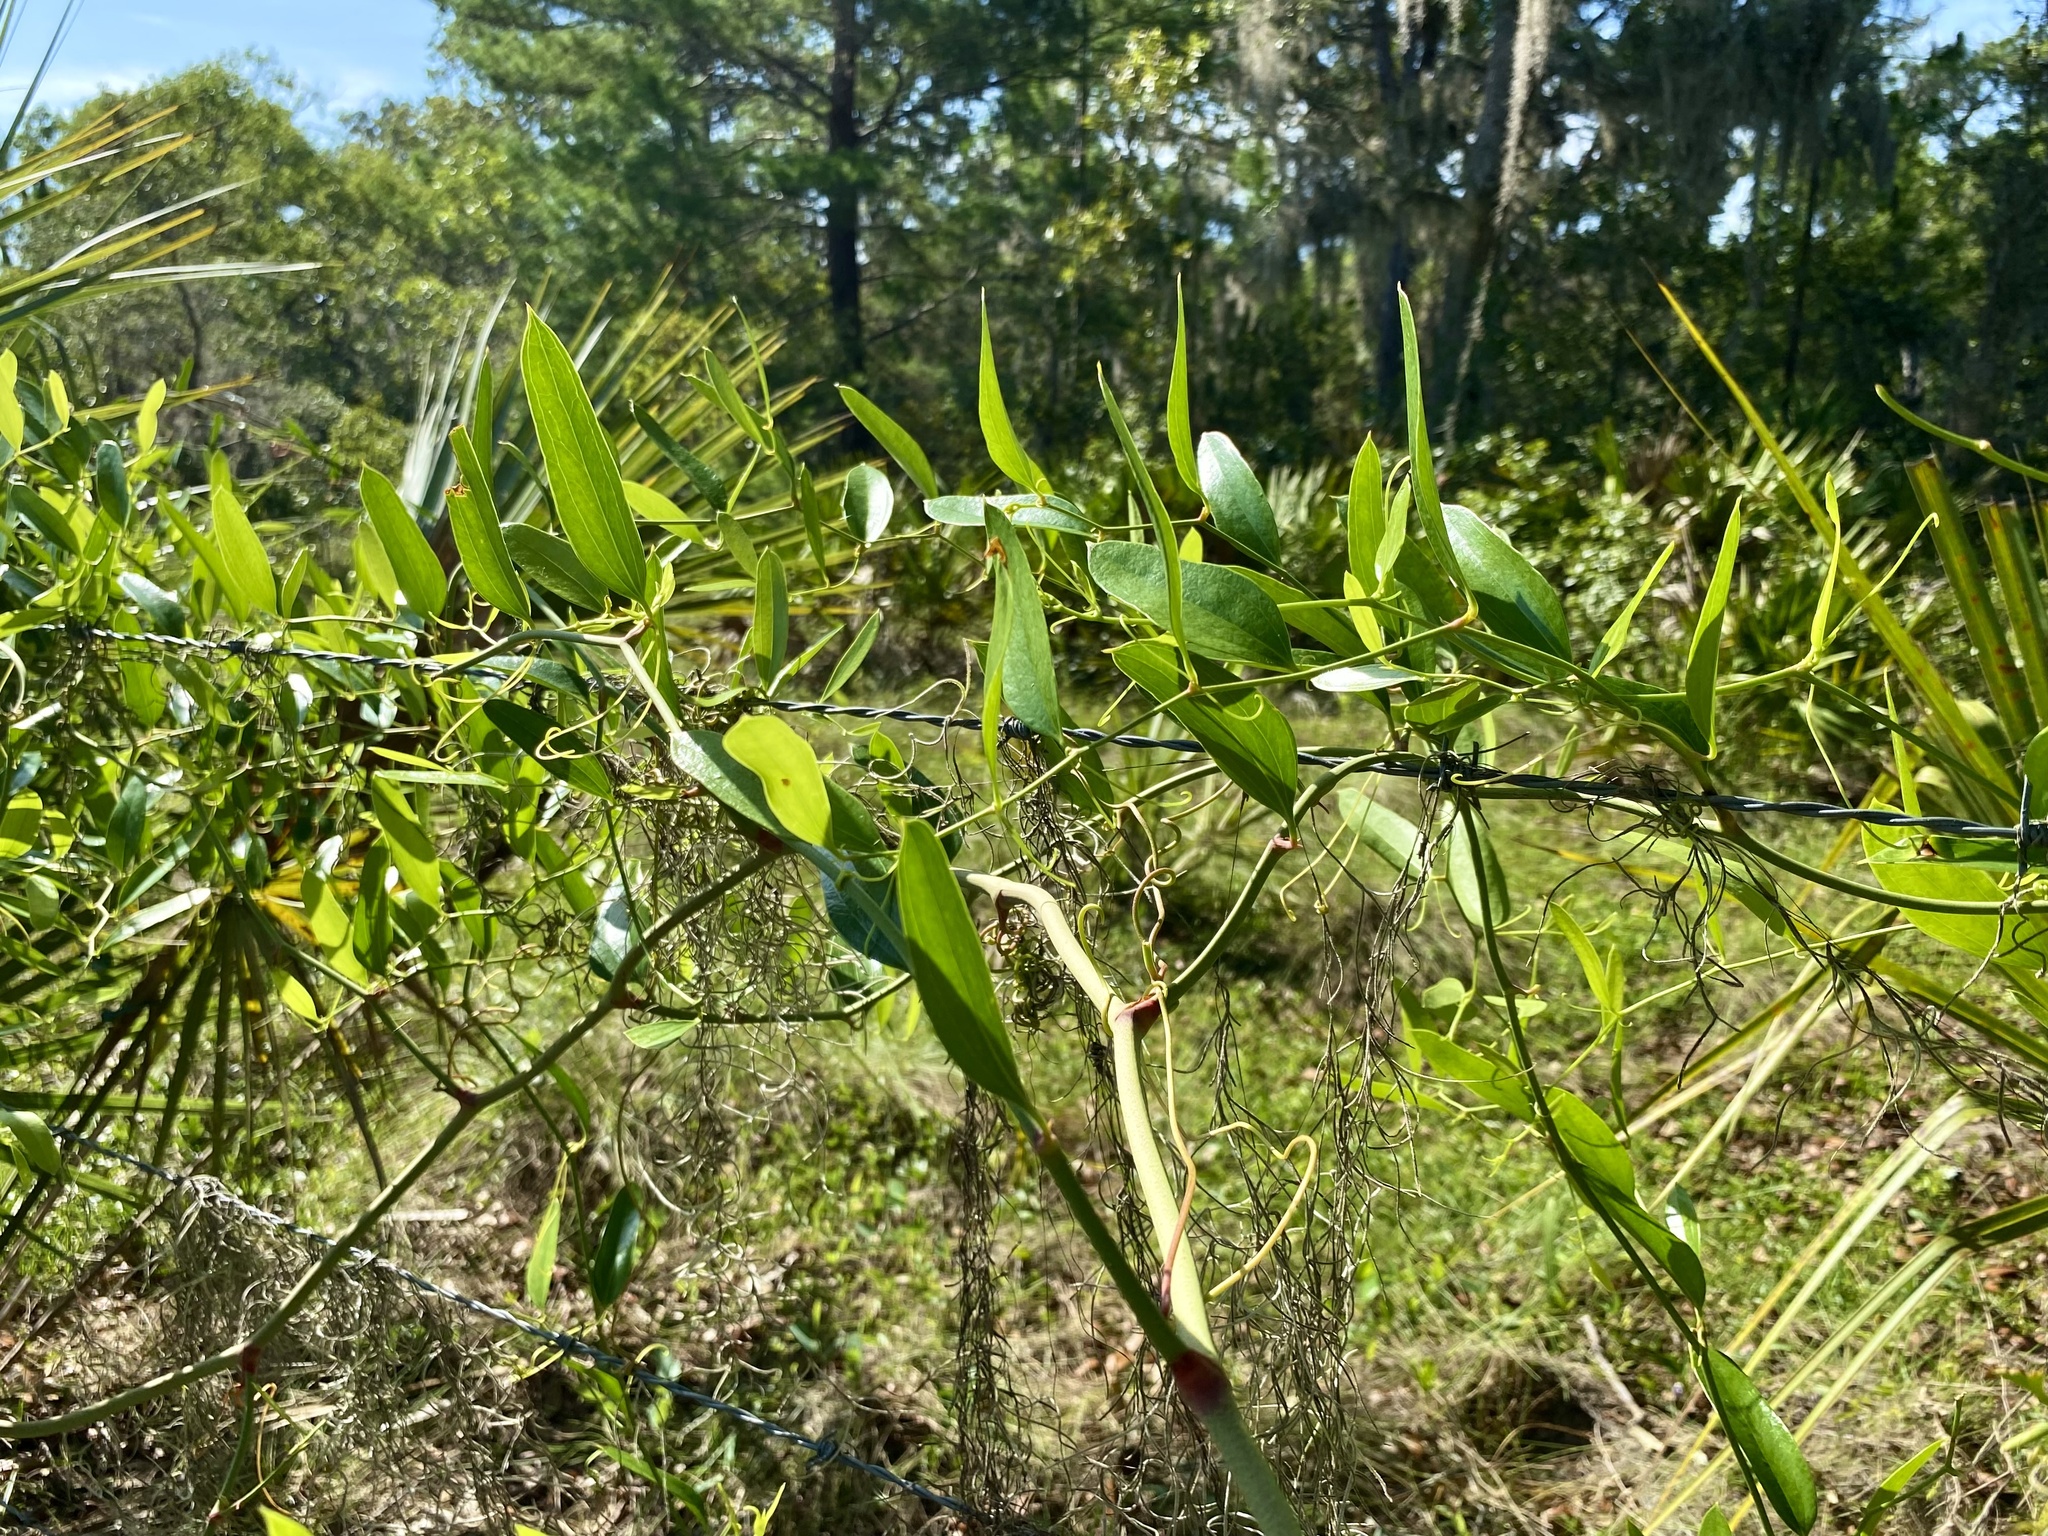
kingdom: Plantae
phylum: Tracheophyta
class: Liliopsida
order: Liliales
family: Smilacaceae
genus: Smilax
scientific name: Smilax auriculata
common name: Wild bamboo
